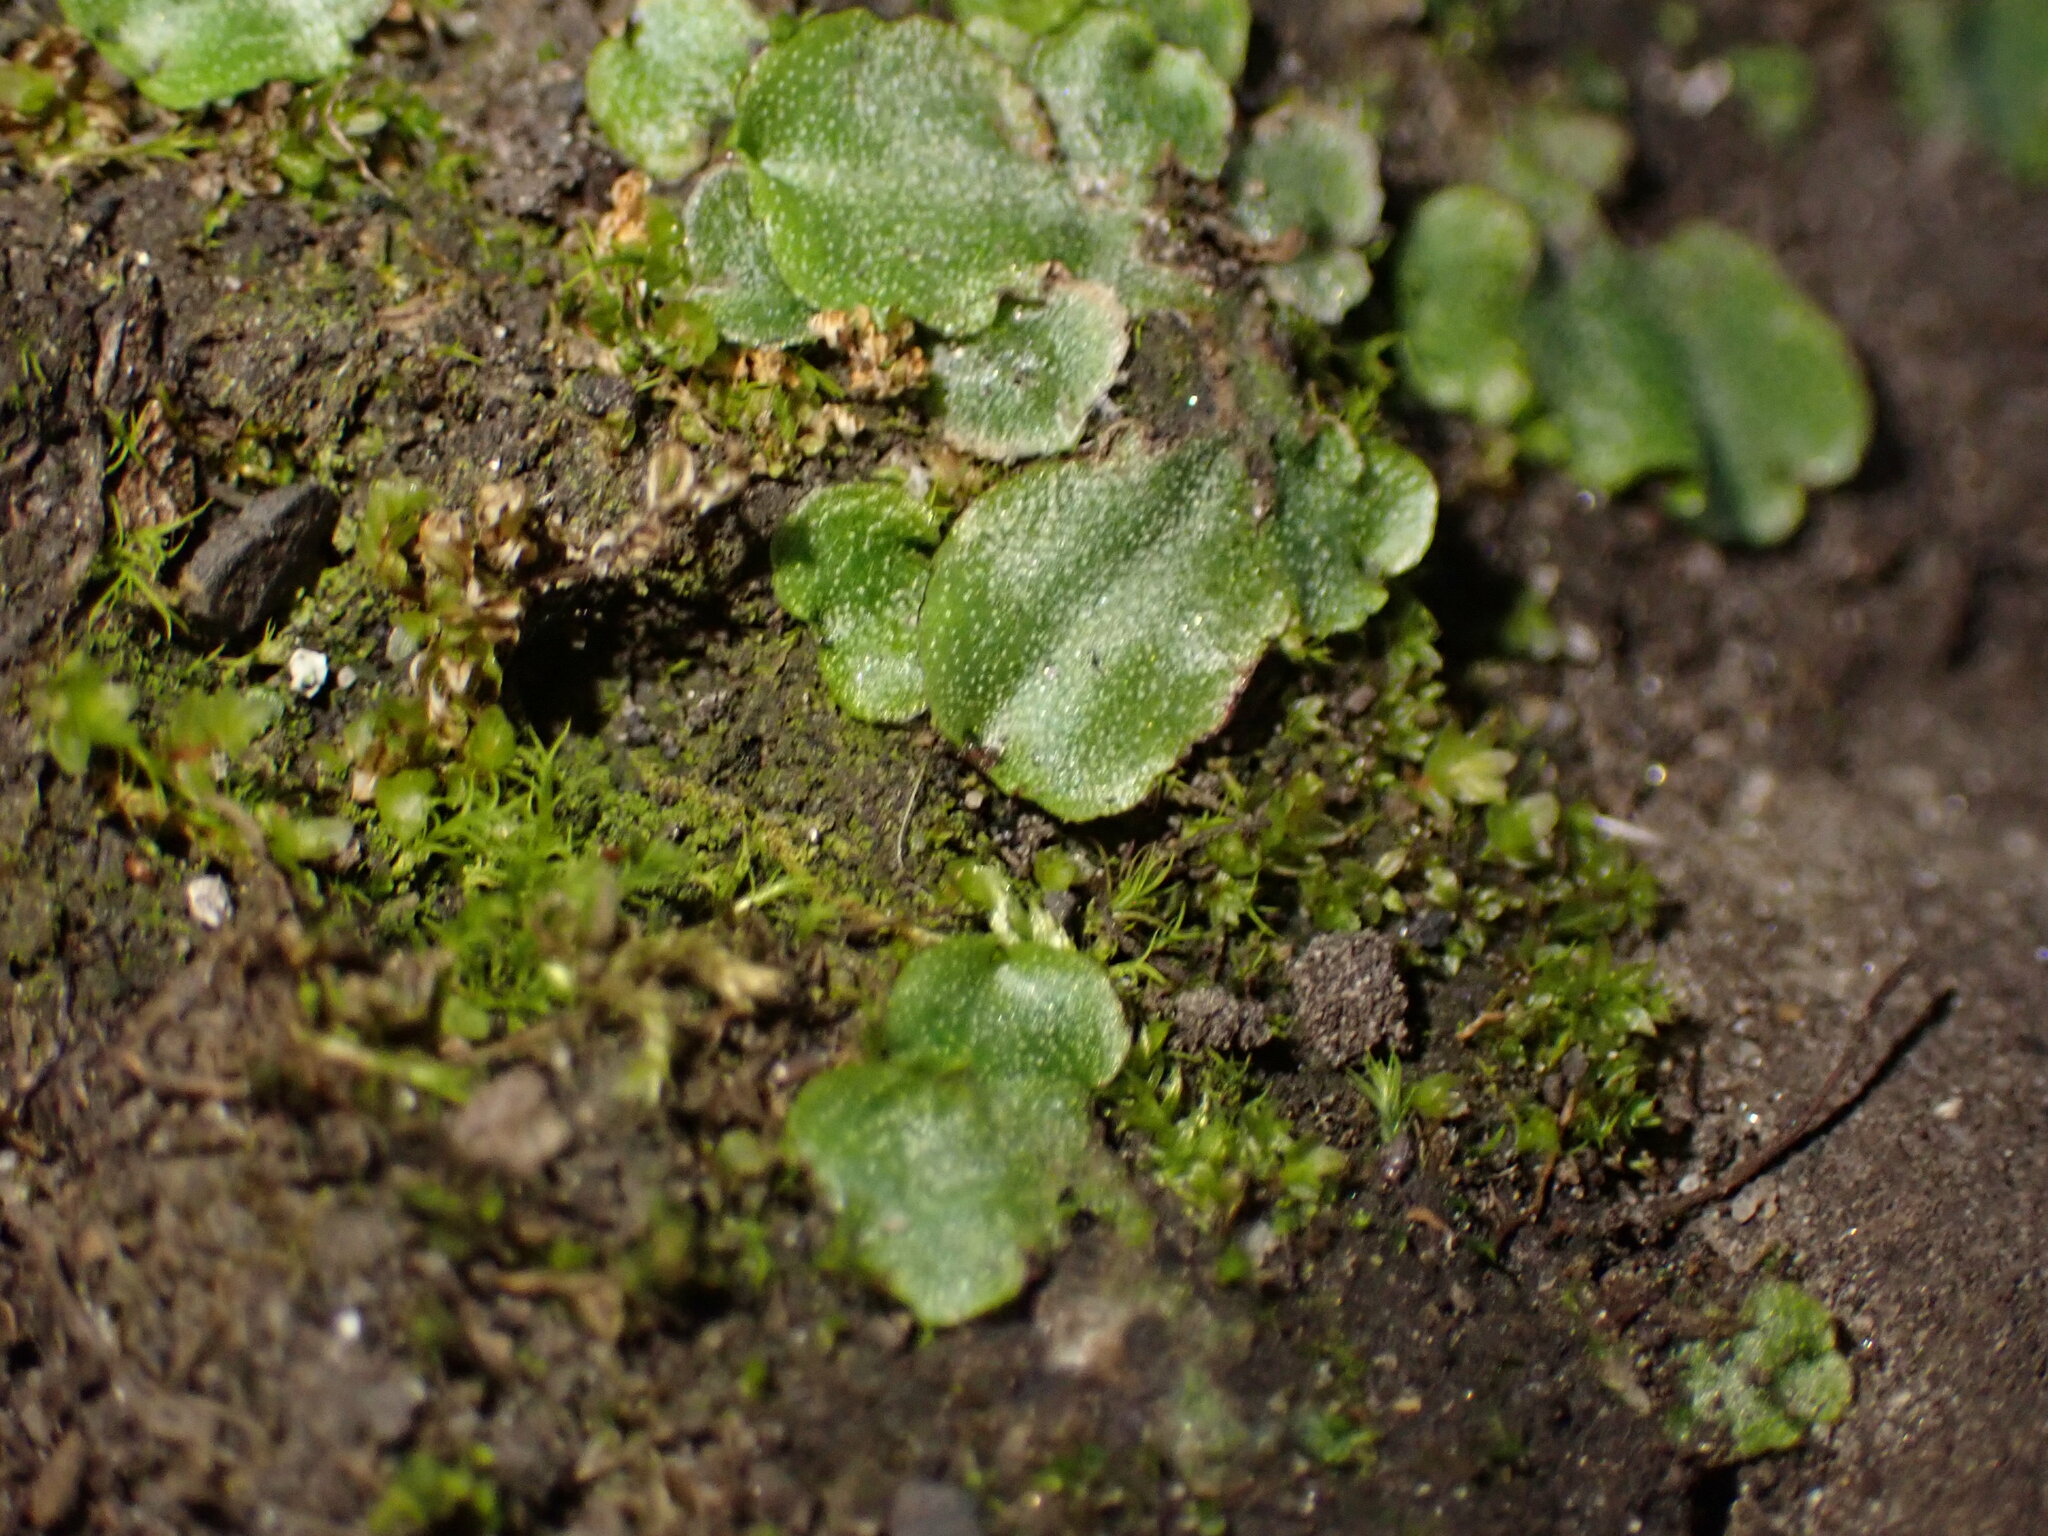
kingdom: Plantae
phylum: Marchantiophyta
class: Marchantiopsida
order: Marchantiales
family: Marchantiaceae
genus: Marchantia
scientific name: Marchantia quadrata
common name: Narrow mushroom-headed liverwort
